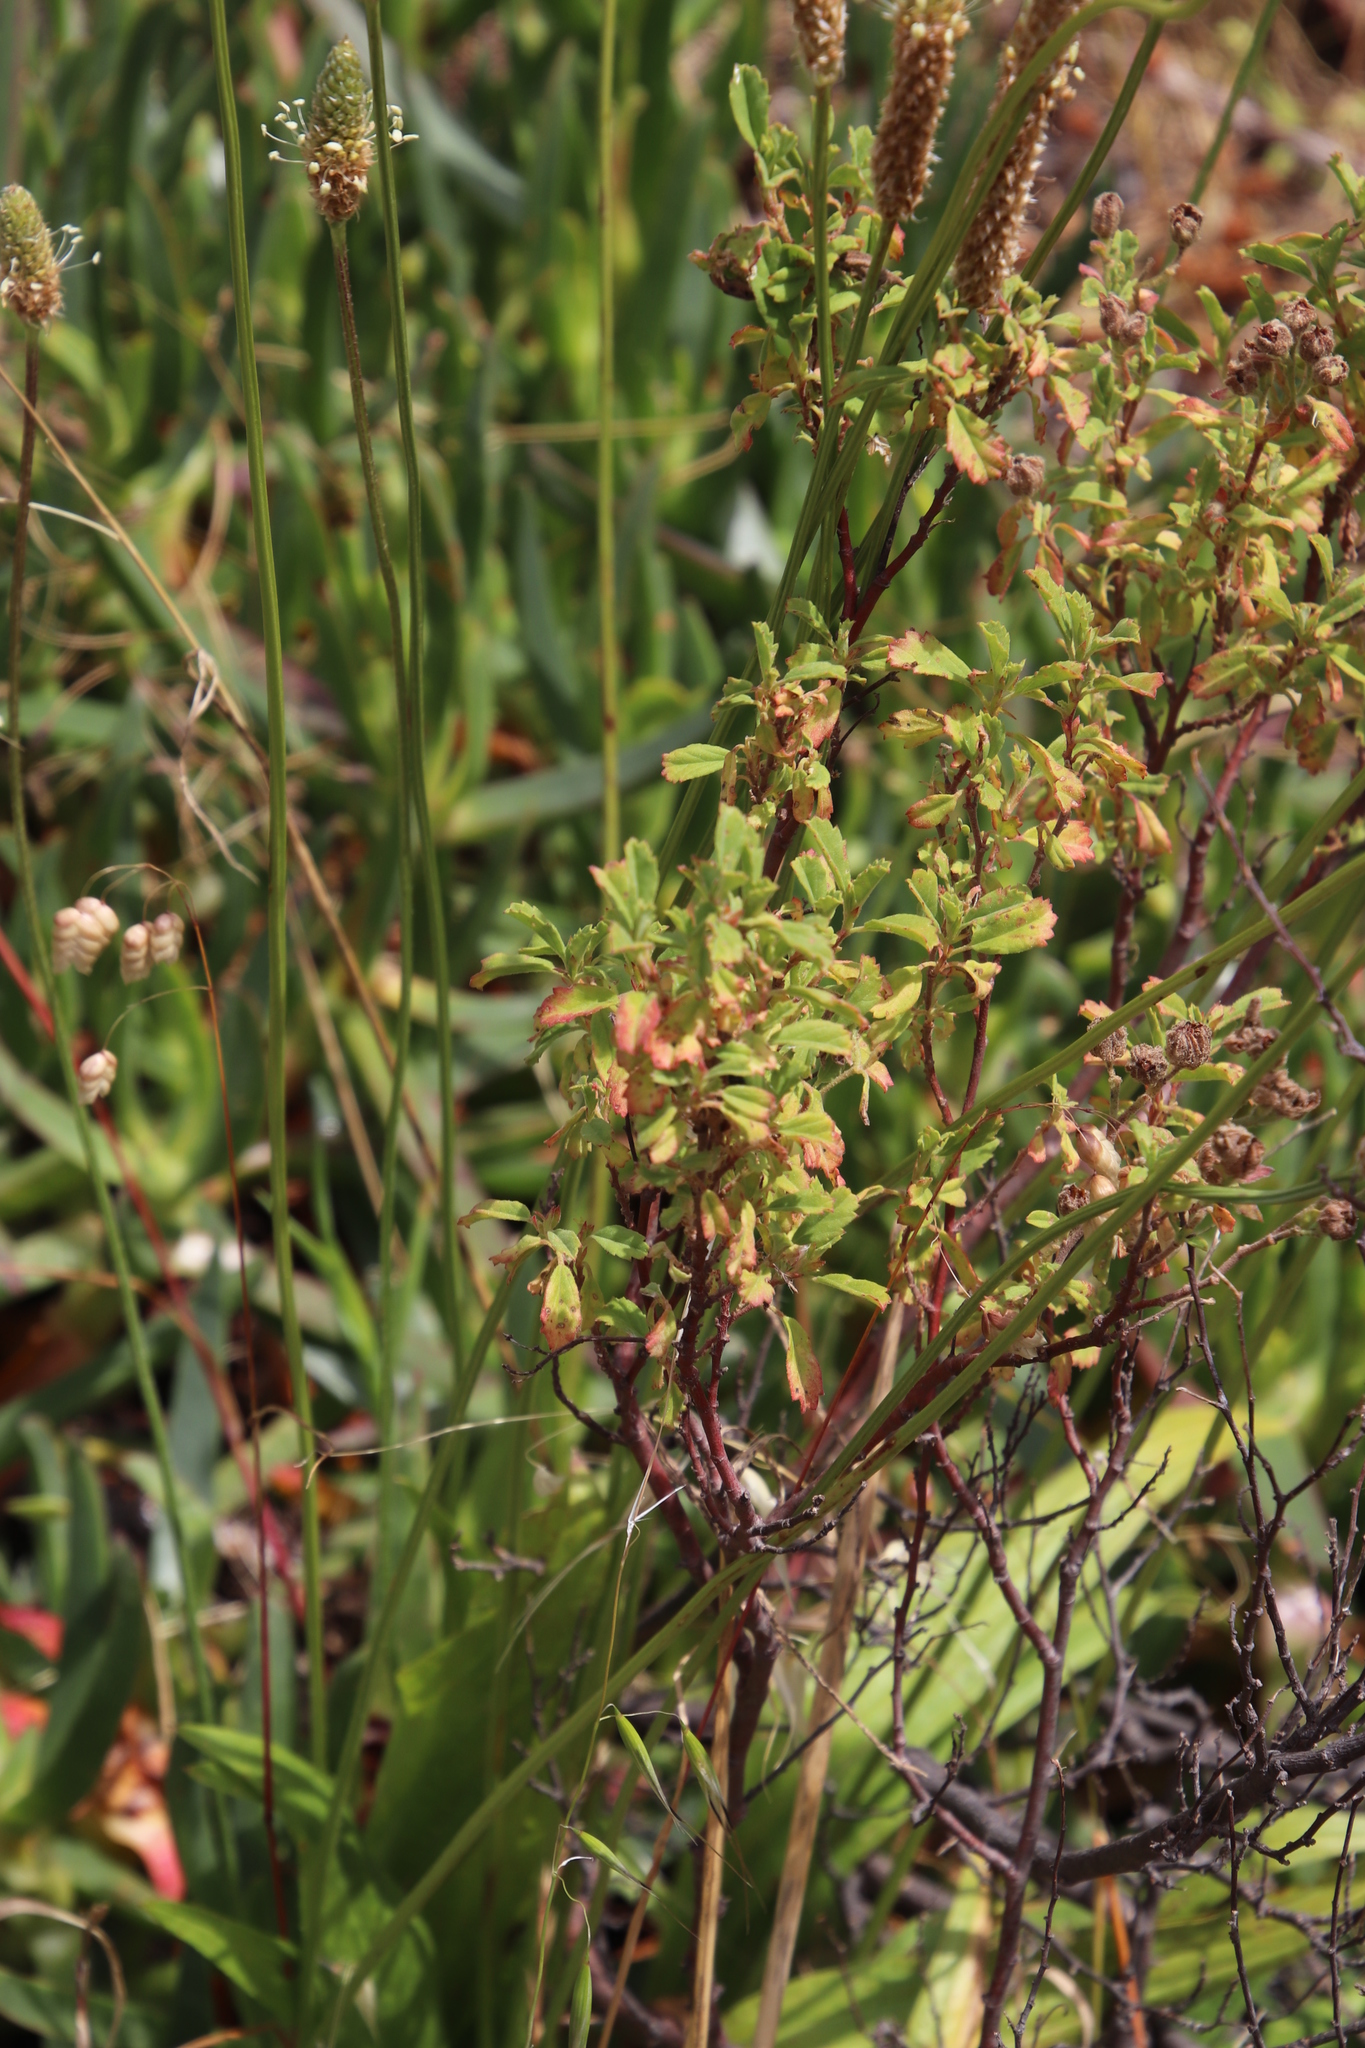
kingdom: Plantae
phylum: Tracheophyta
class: Magnoliopsida
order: Malvales
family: Malvaceae
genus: Hermannia
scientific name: Hermannia hyssopifolia
